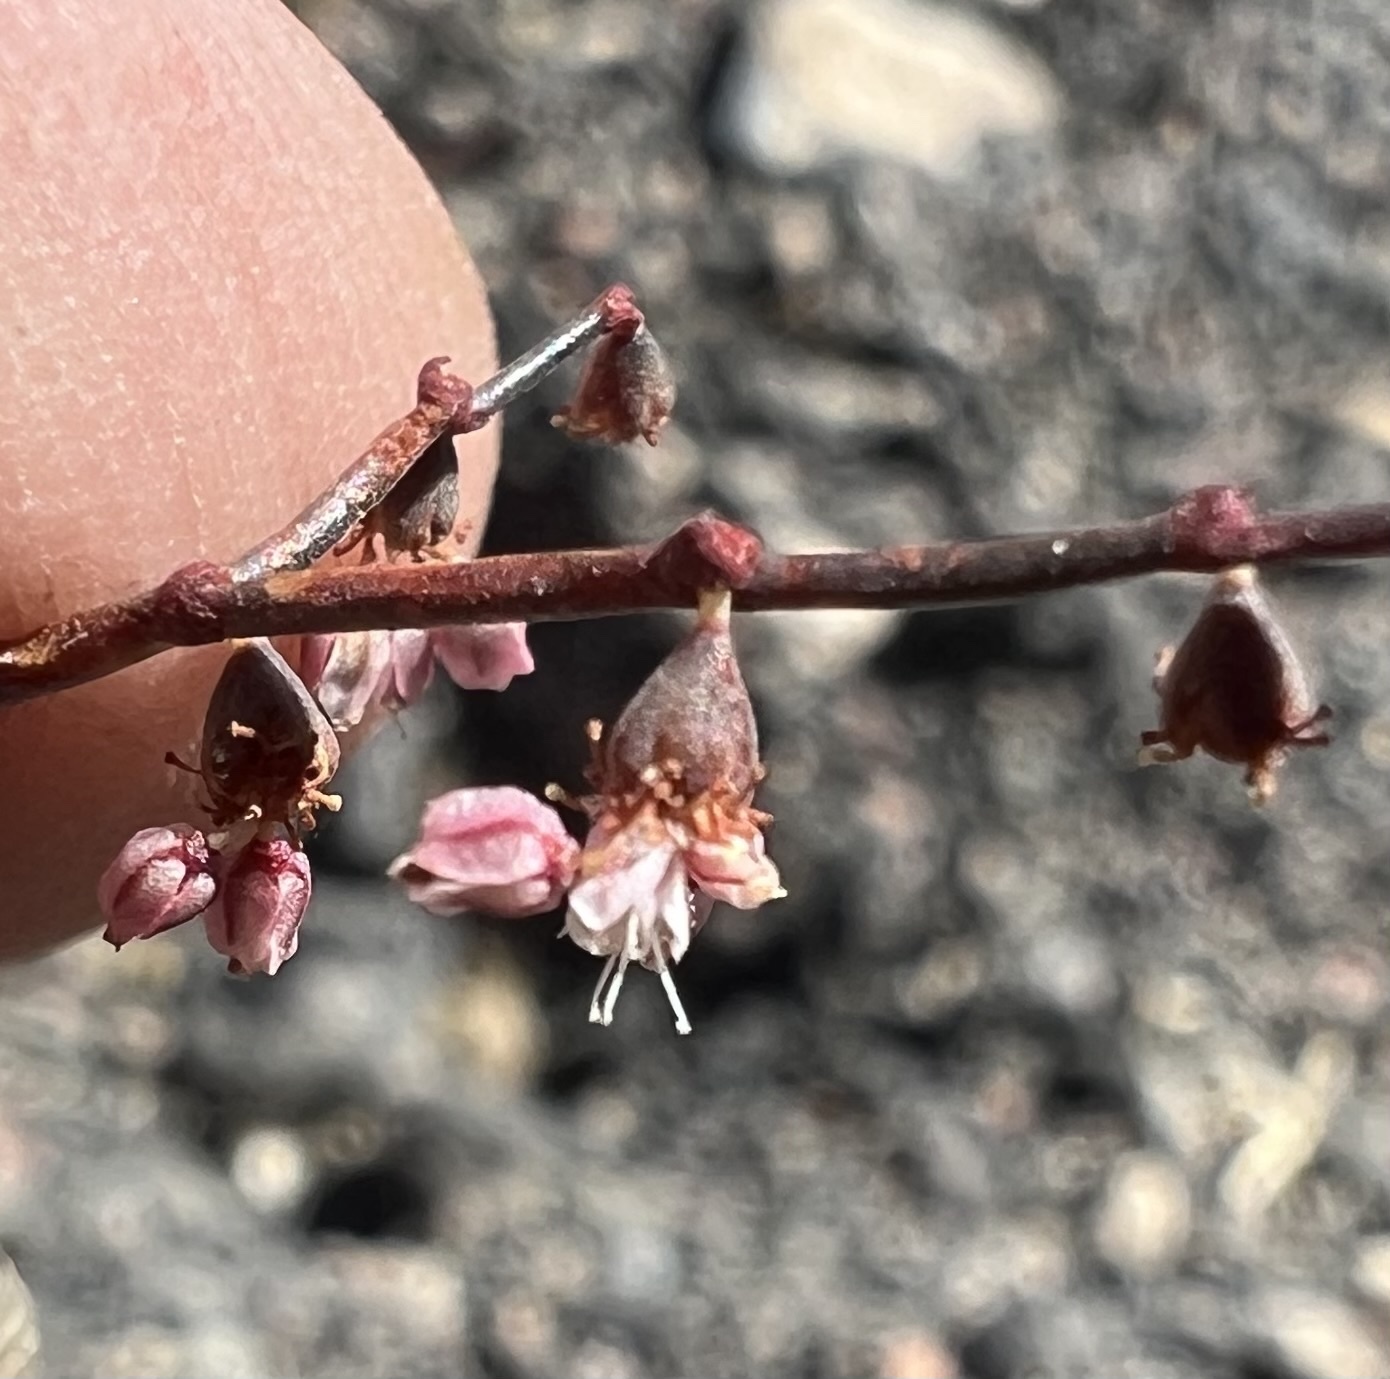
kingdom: Plantae
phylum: Tracheophyta
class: Magnoliopsida
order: Caryophyllales
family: Polygonaceae
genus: Eriogonum
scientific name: Eriogonum deflexum
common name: Skeleton-weed
